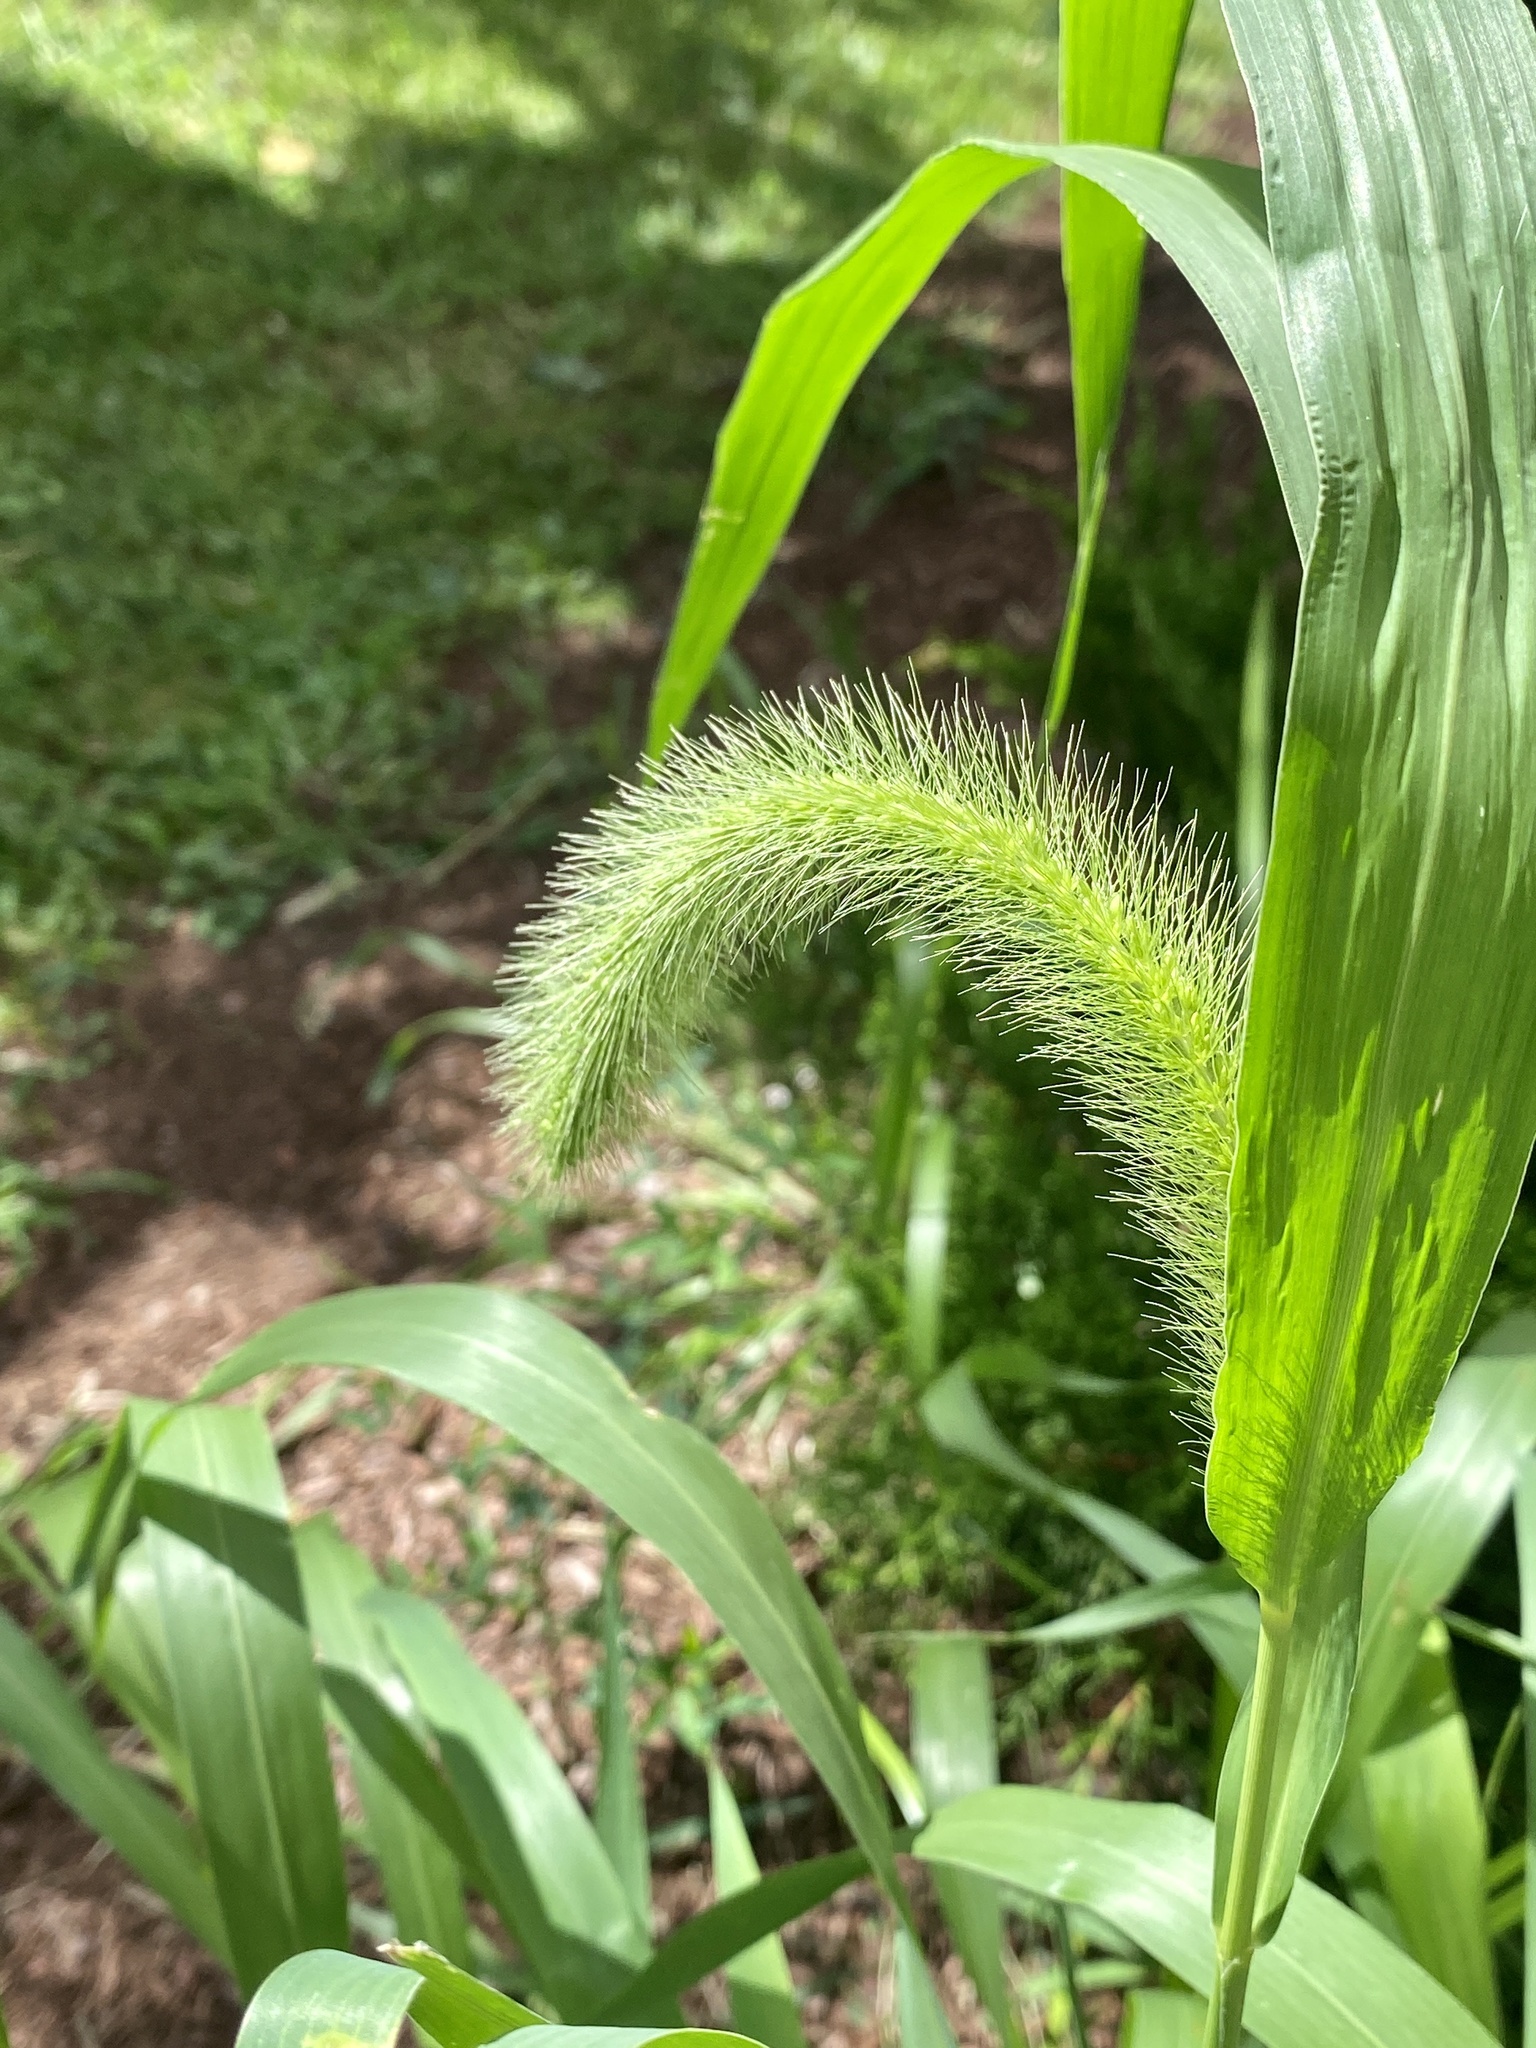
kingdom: Plantae
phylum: Tracheophyta
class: Liliopsida
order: Poales
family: Poaceae
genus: Setaria
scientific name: Setaria faberi
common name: Nodding bristle-grass
